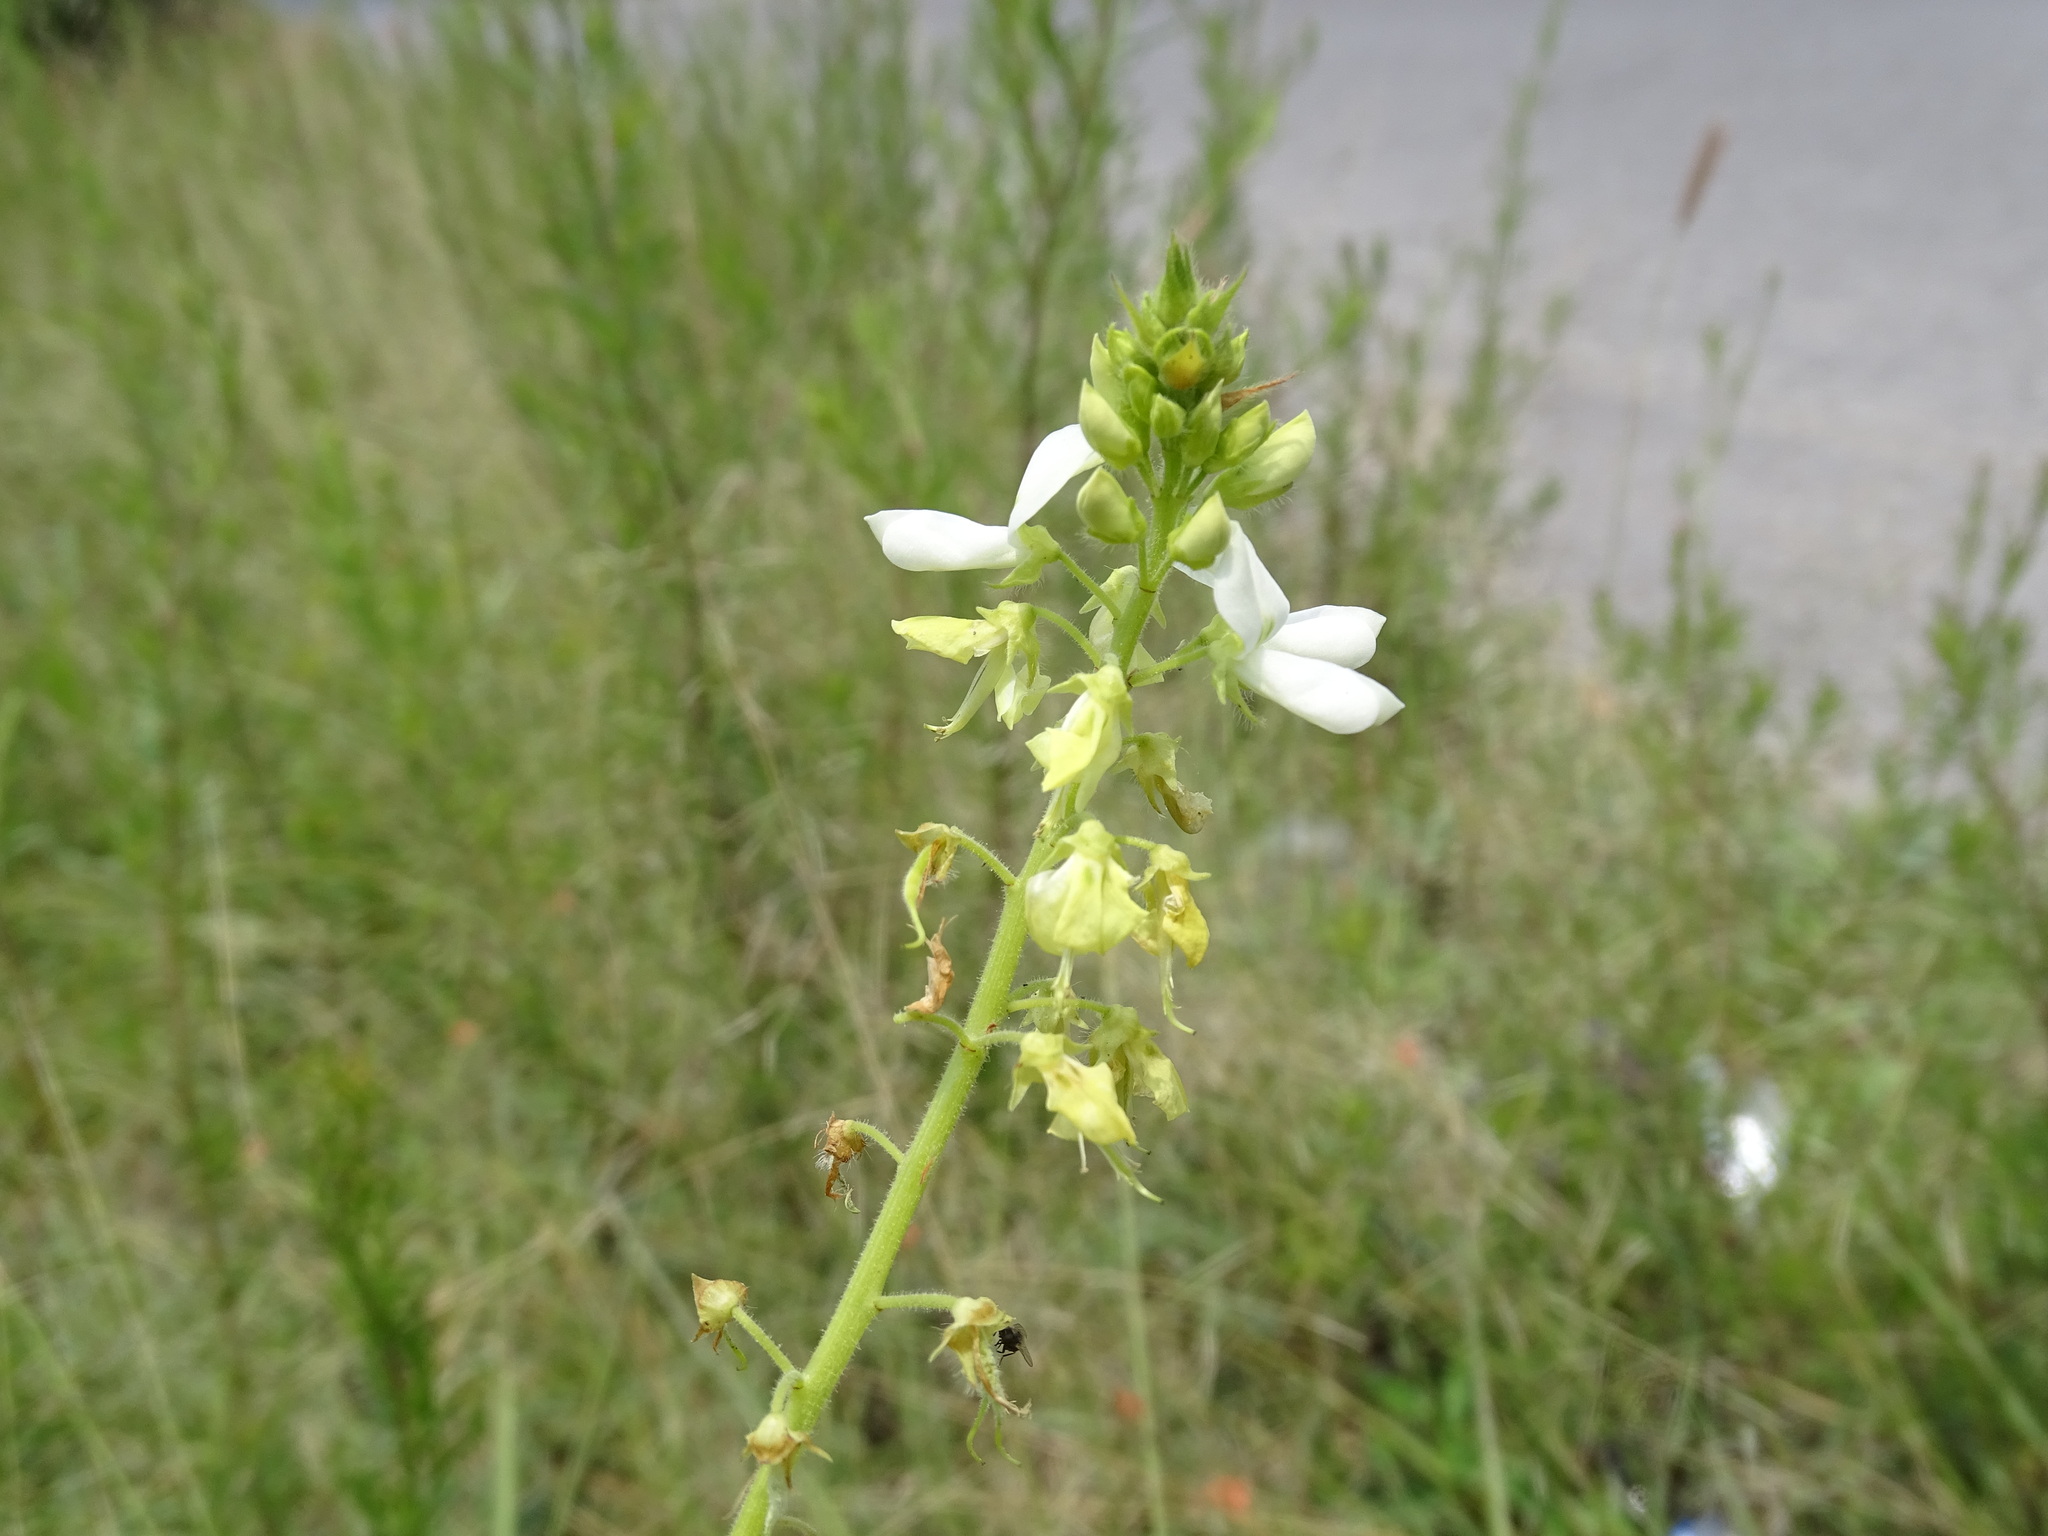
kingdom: Plantae
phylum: Tracheophyta
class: Magnoliopsida
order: Fabales
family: Fabaceae
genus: Desmodium
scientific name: Desmodium subsessile
